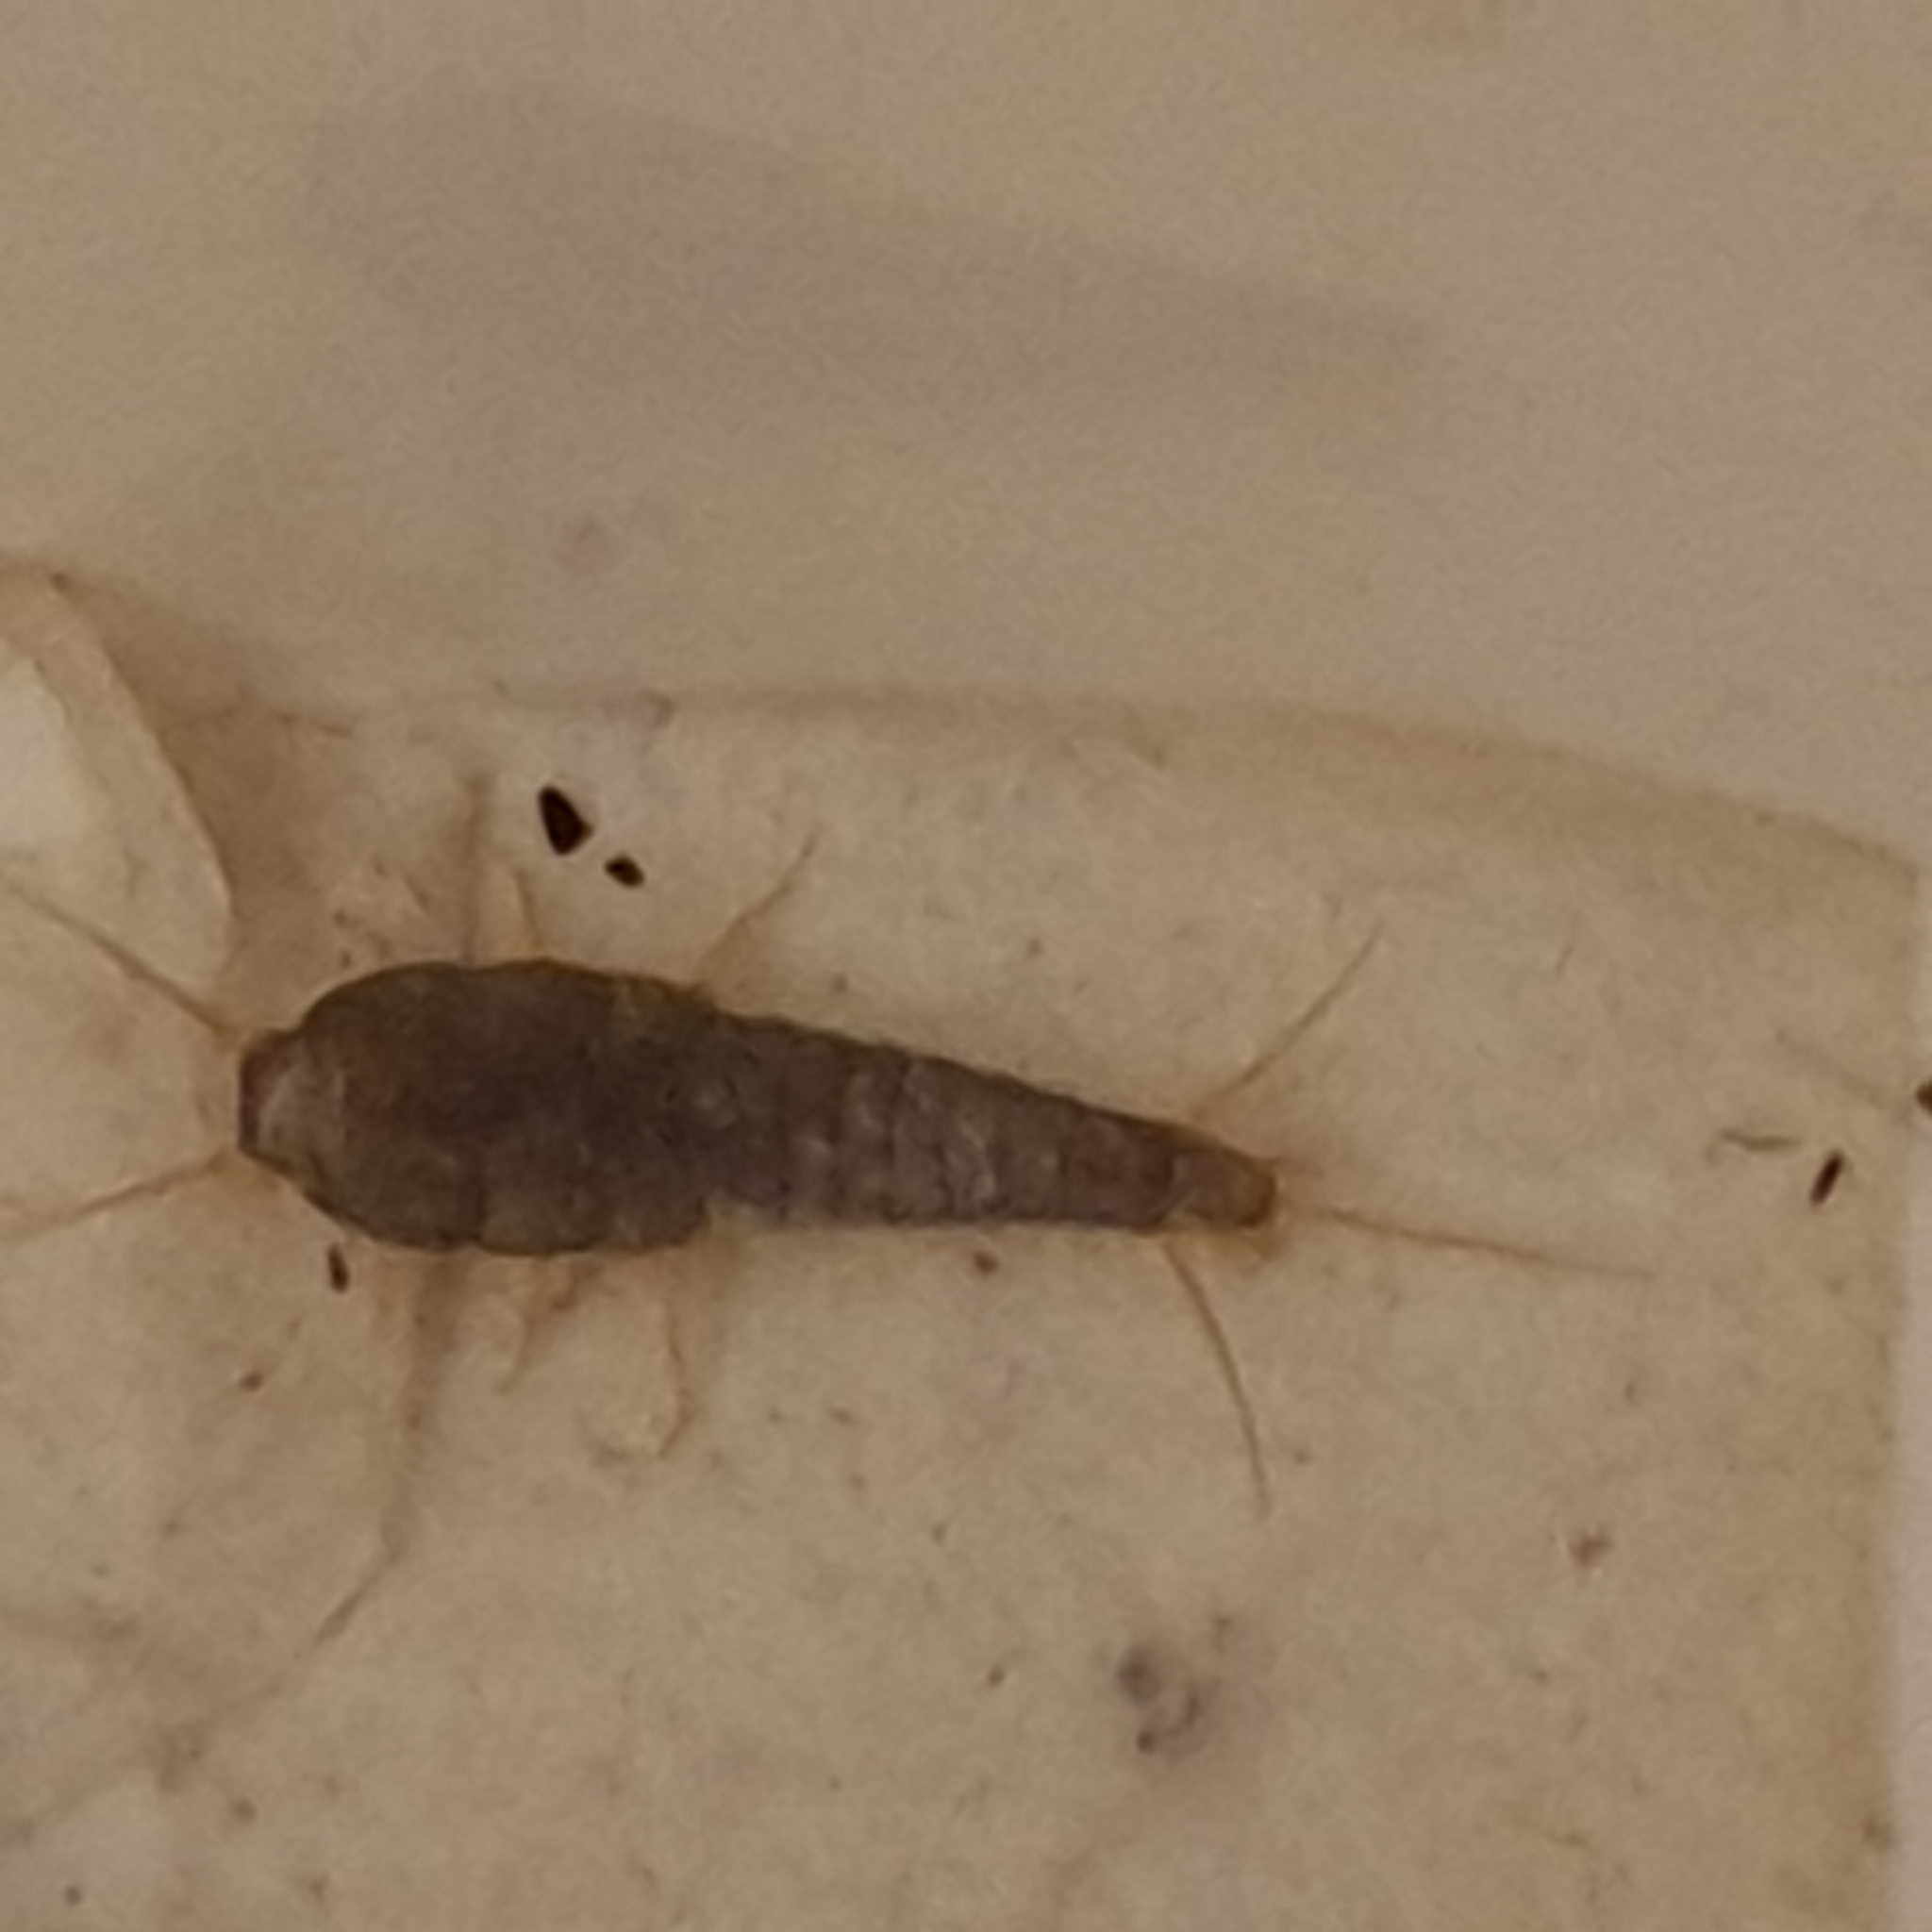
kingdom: Animalia
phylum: Arthropoda
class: Insecta
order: Zygentoma
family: Lepismatidae
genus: Lepisma
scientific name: Lepisma saccharinum
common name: Silverfish
